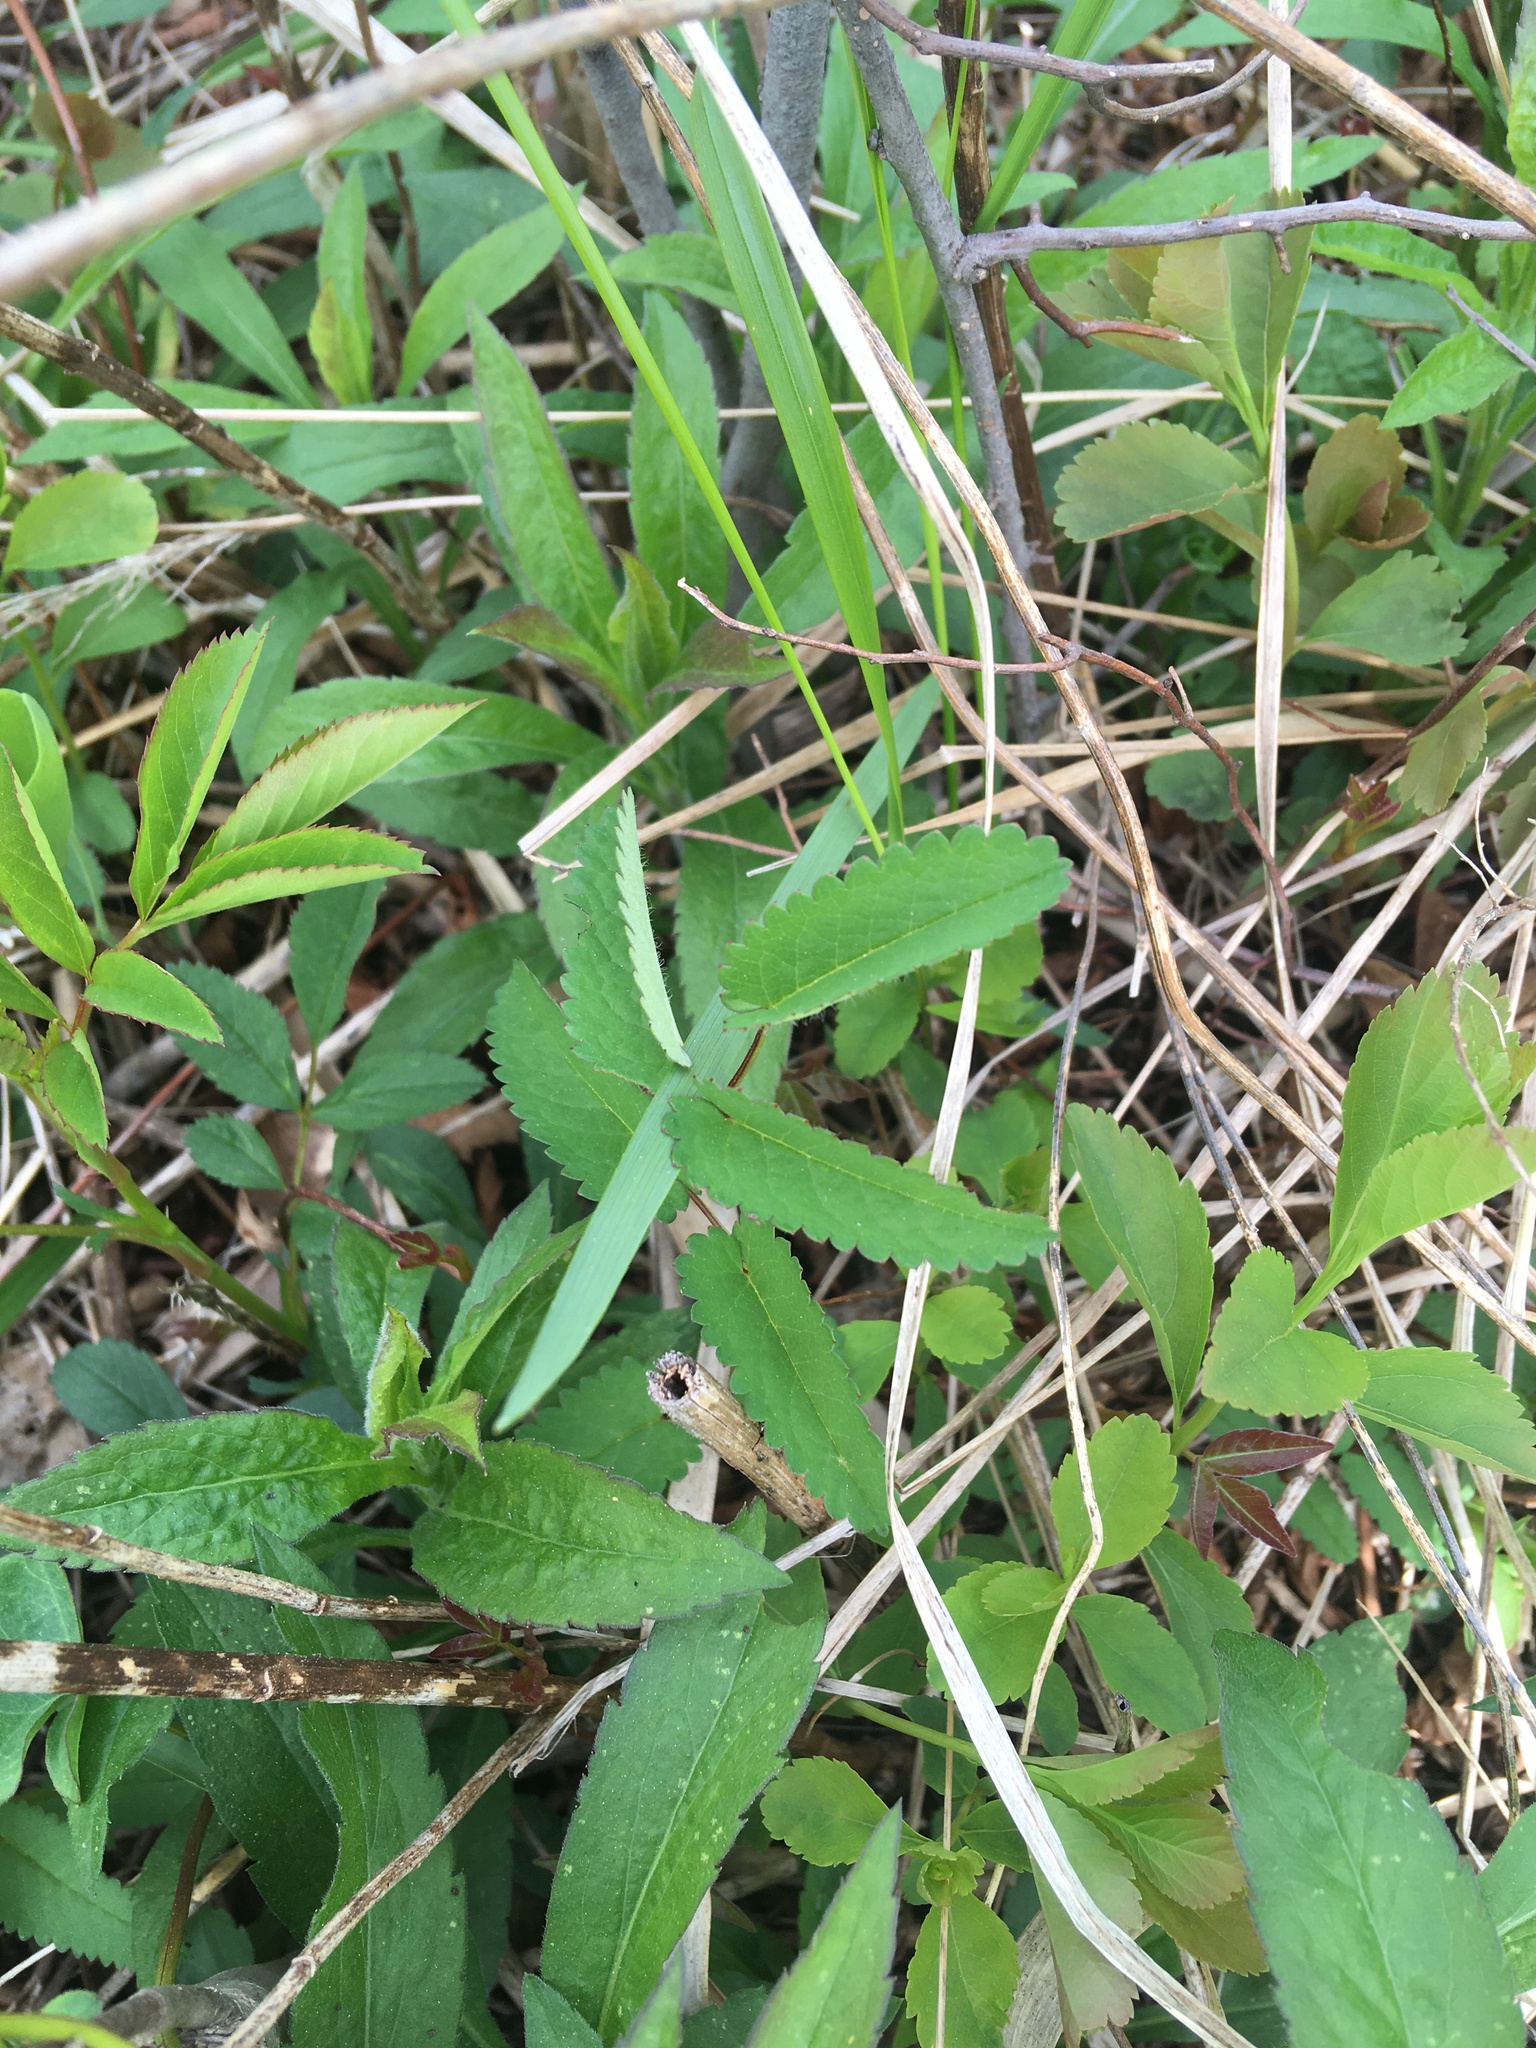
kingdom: Plantae
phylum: Tracheophyta
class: Magnoliopsida
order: Rosales
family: Rosaceae
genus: Sanguisorba
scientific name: Sanguisorba canadensis
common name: White burnet
